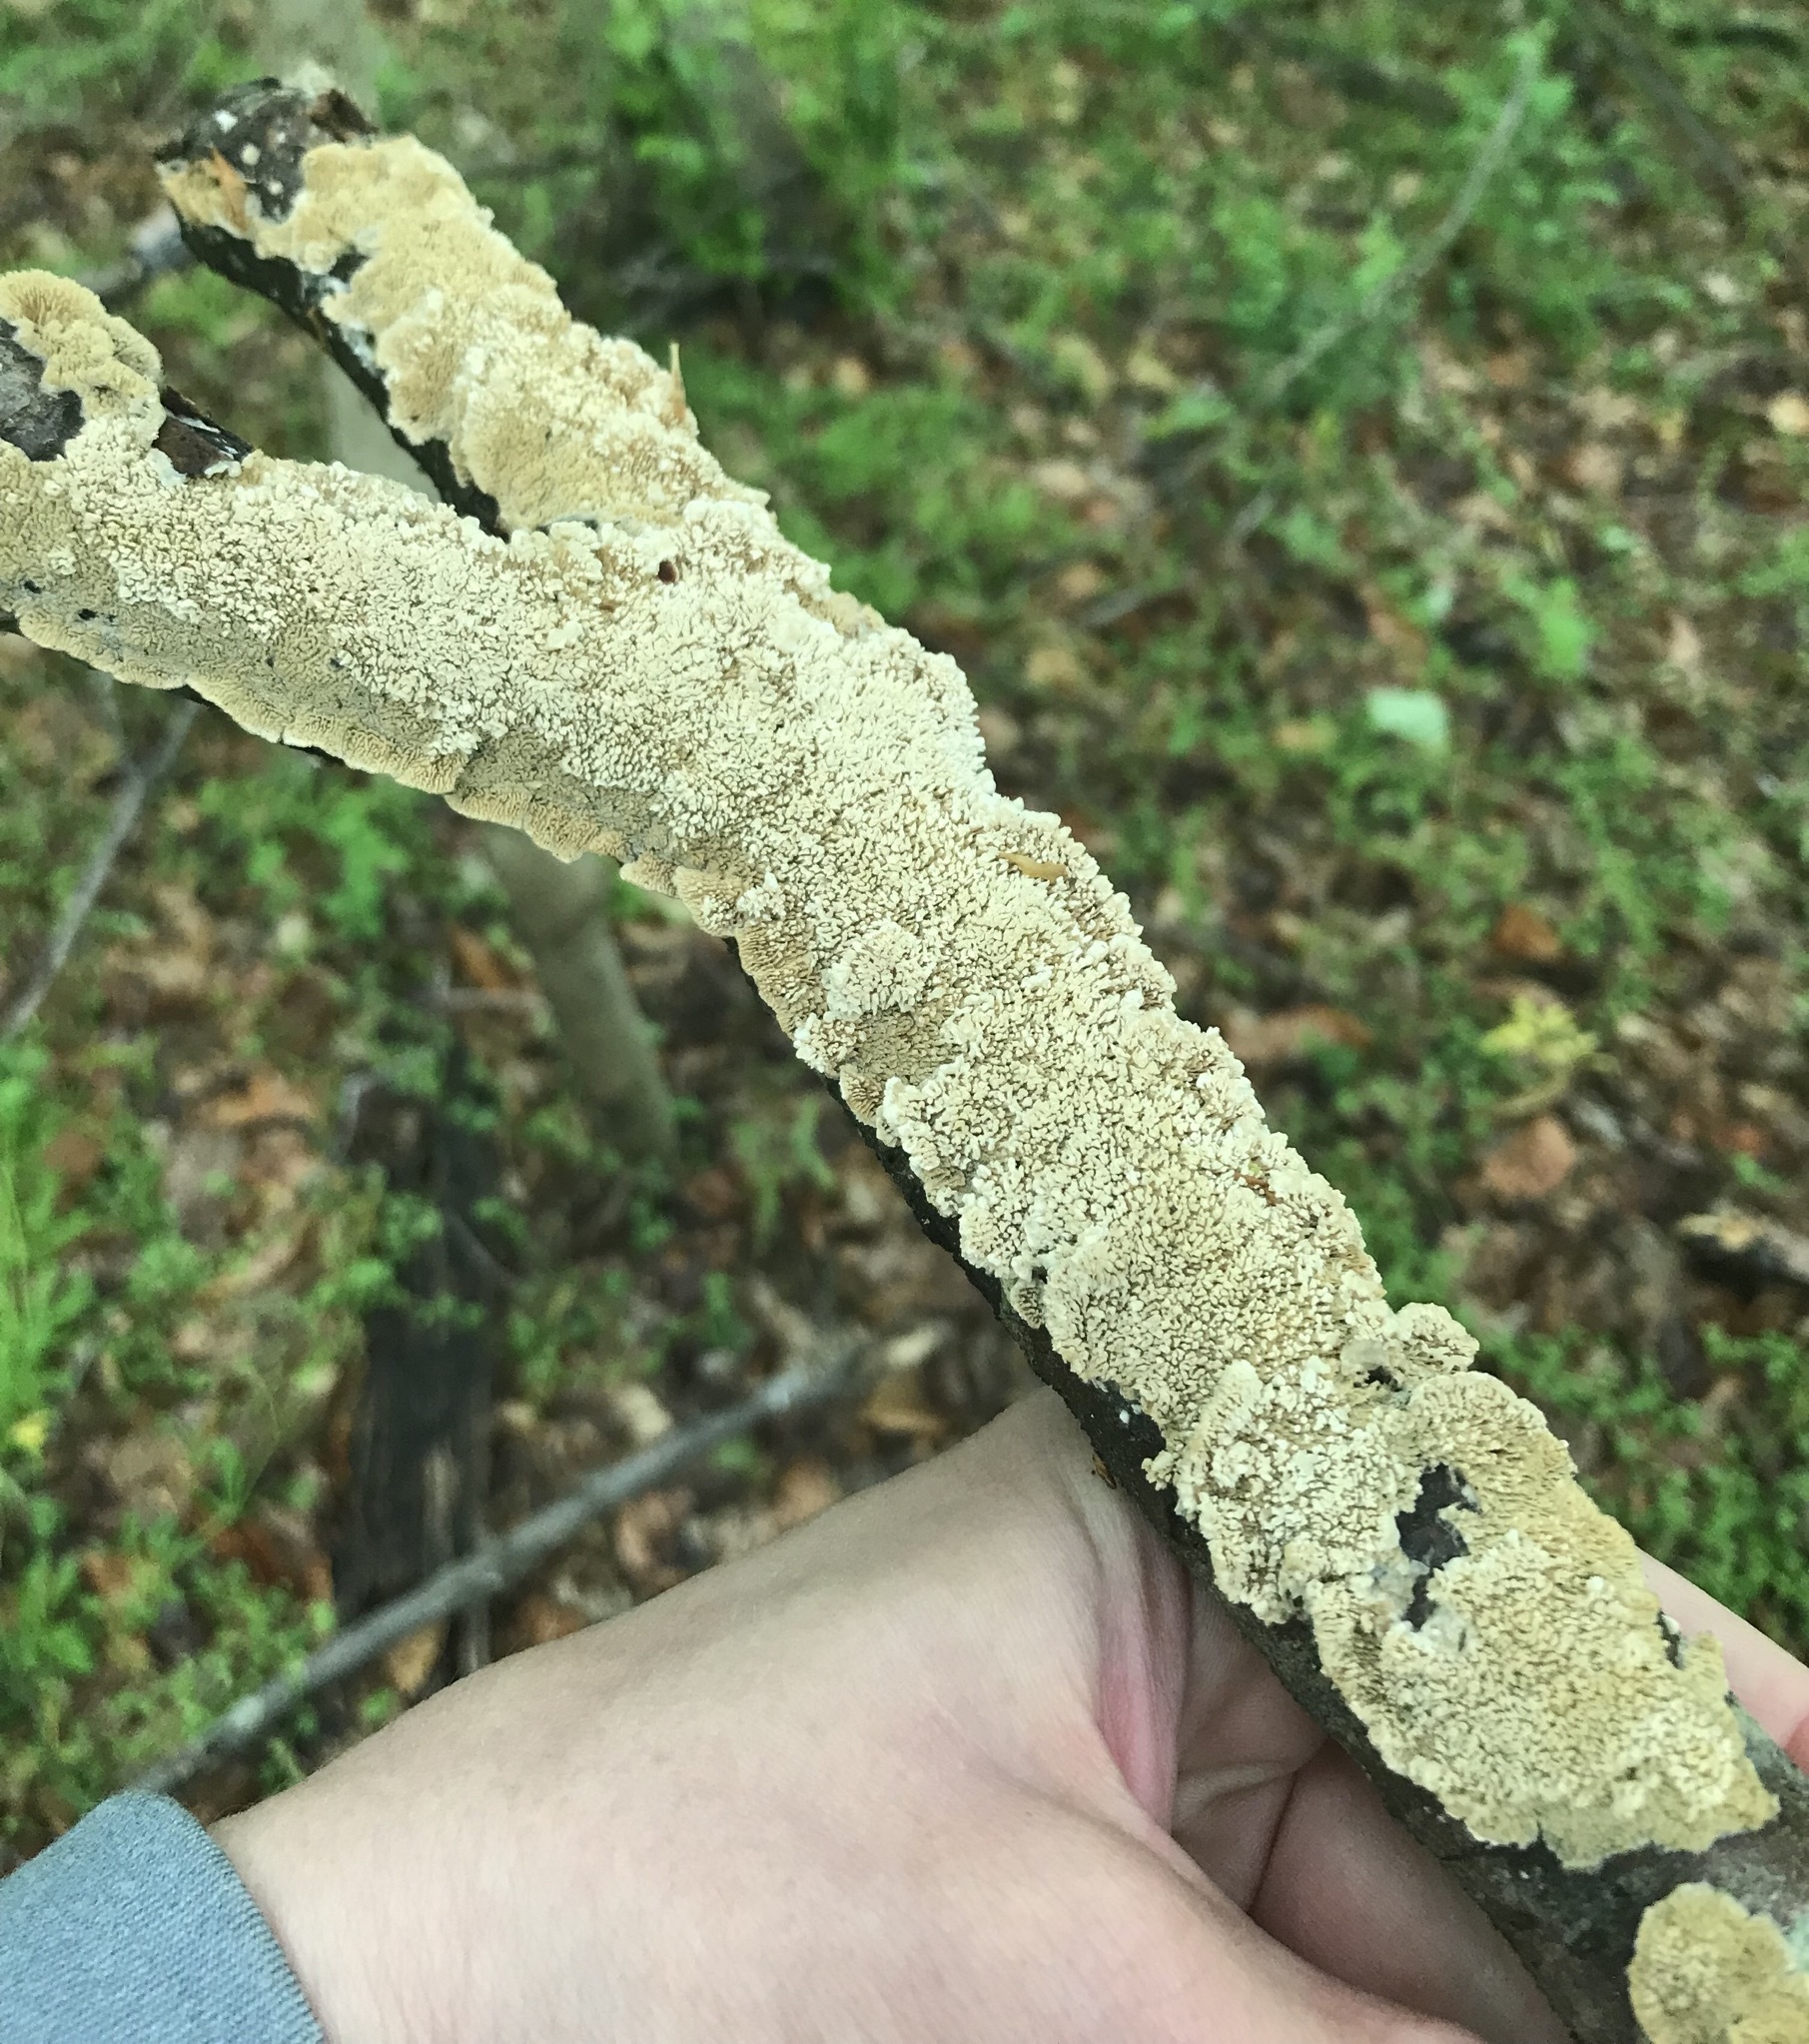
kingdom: Fungi
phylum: Basidiomycota
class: Agaricomycetes
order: Polyporales
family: Irpicaceae
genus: Irpex
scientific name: Irpex lacteus
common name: Milk-white toothed polypore
